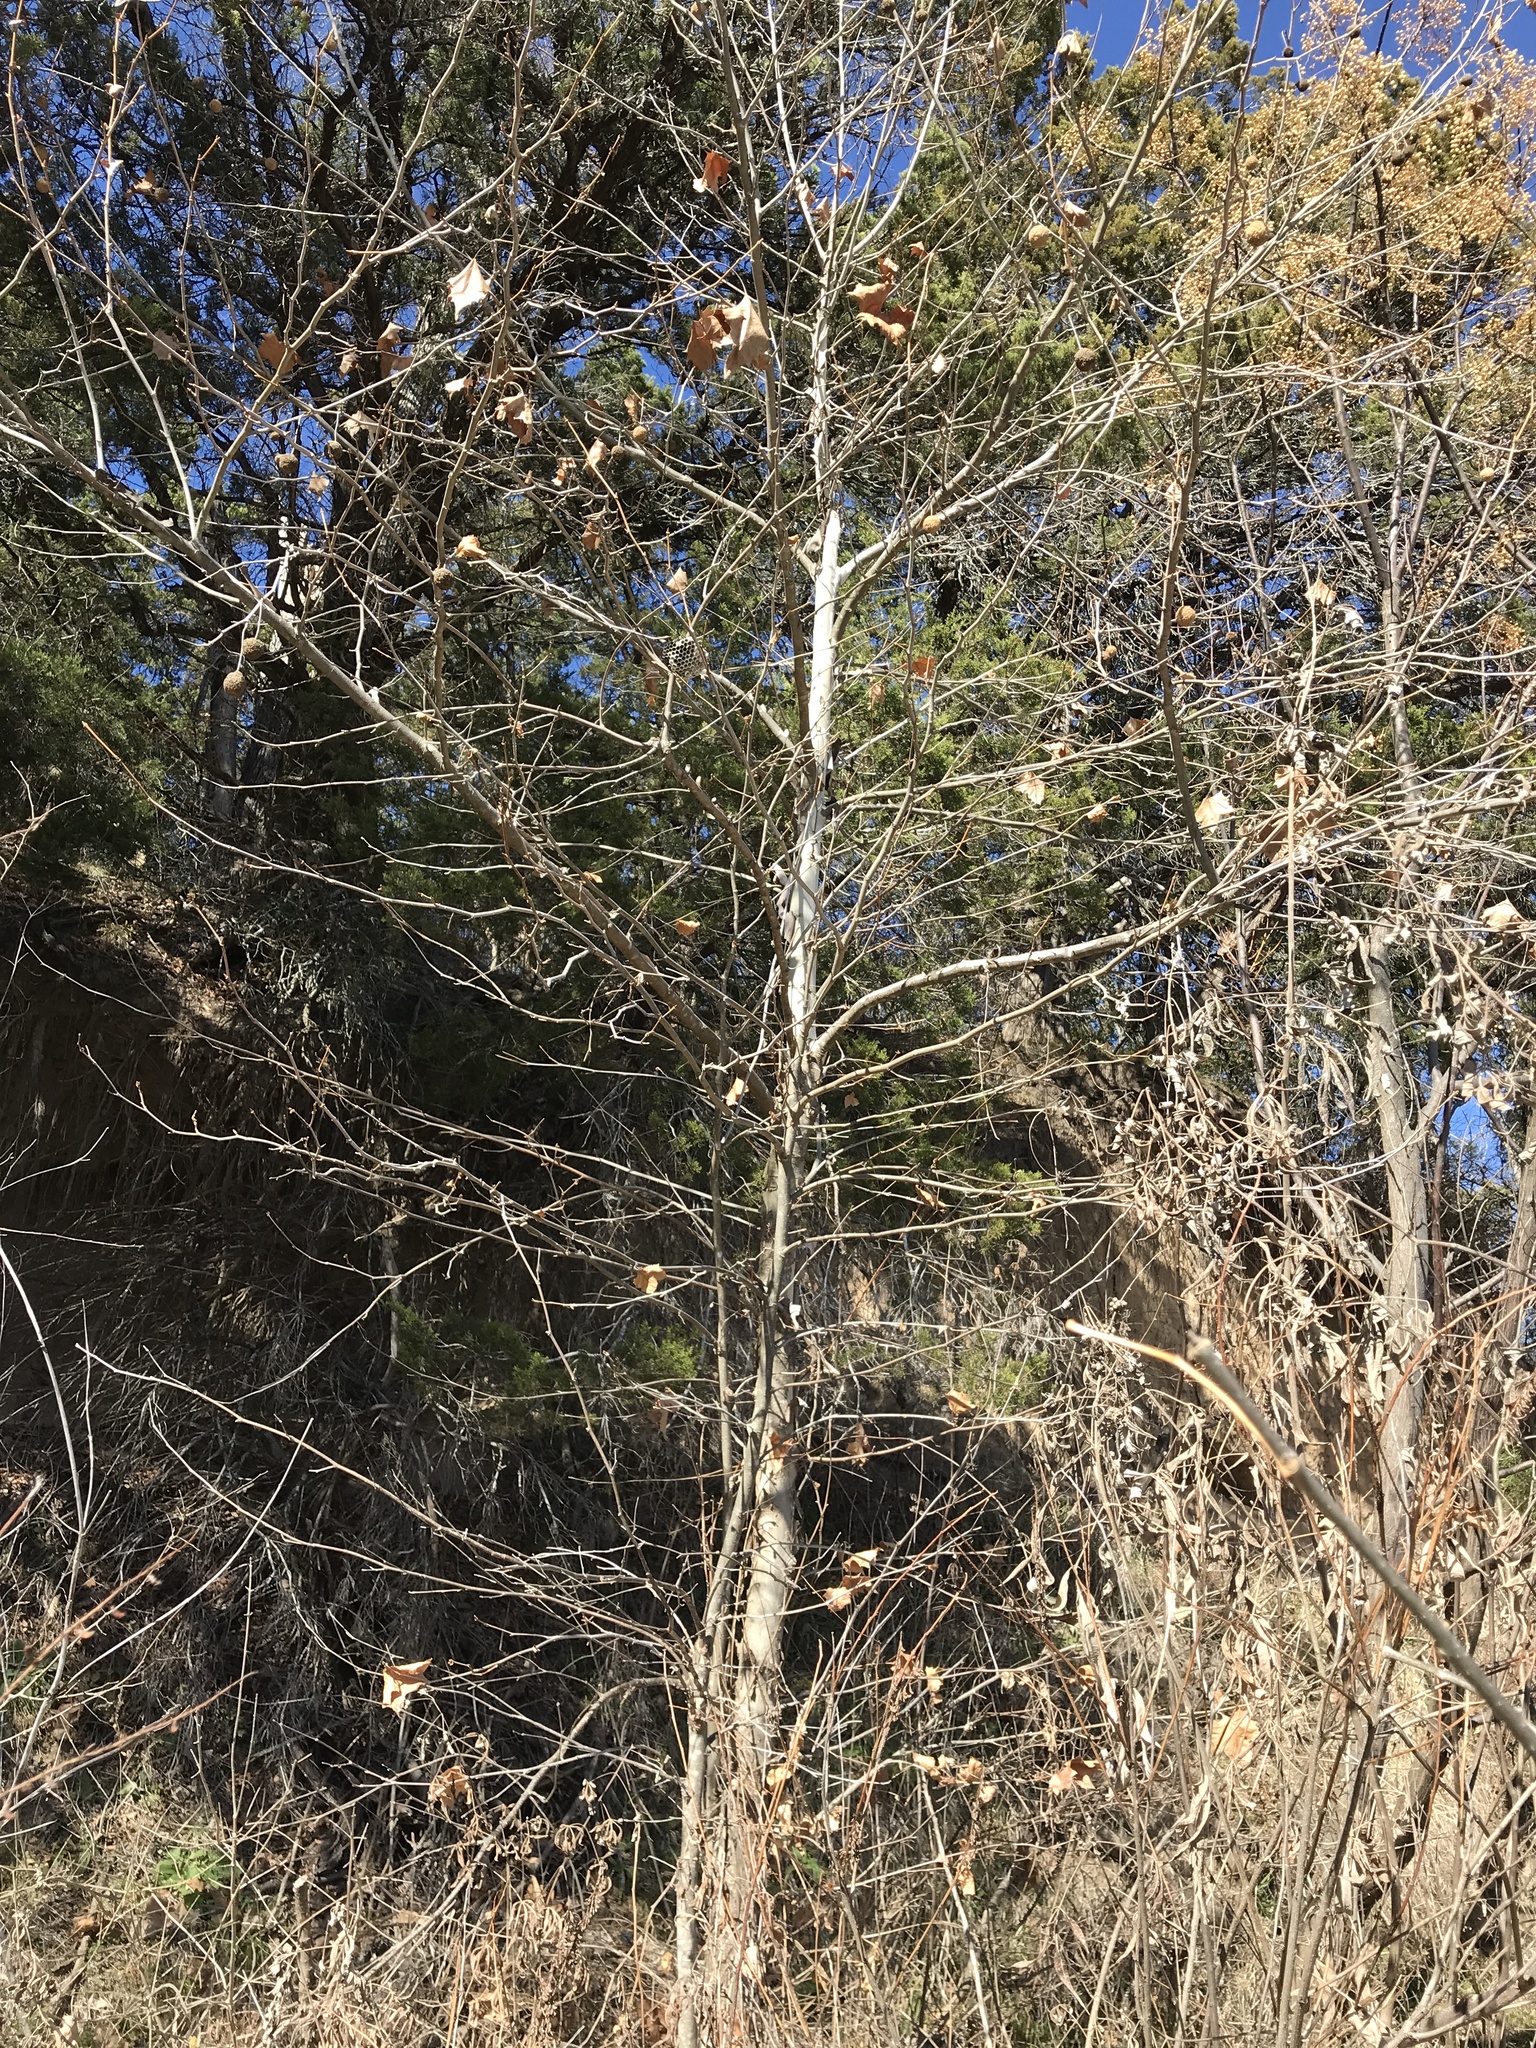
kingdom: Plantae
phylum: Tracheophyta
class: Magnoliopsida
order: Proteales
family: Platanaceae
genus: Platanus
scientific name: Platanus occidentalis
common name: American sycamore
